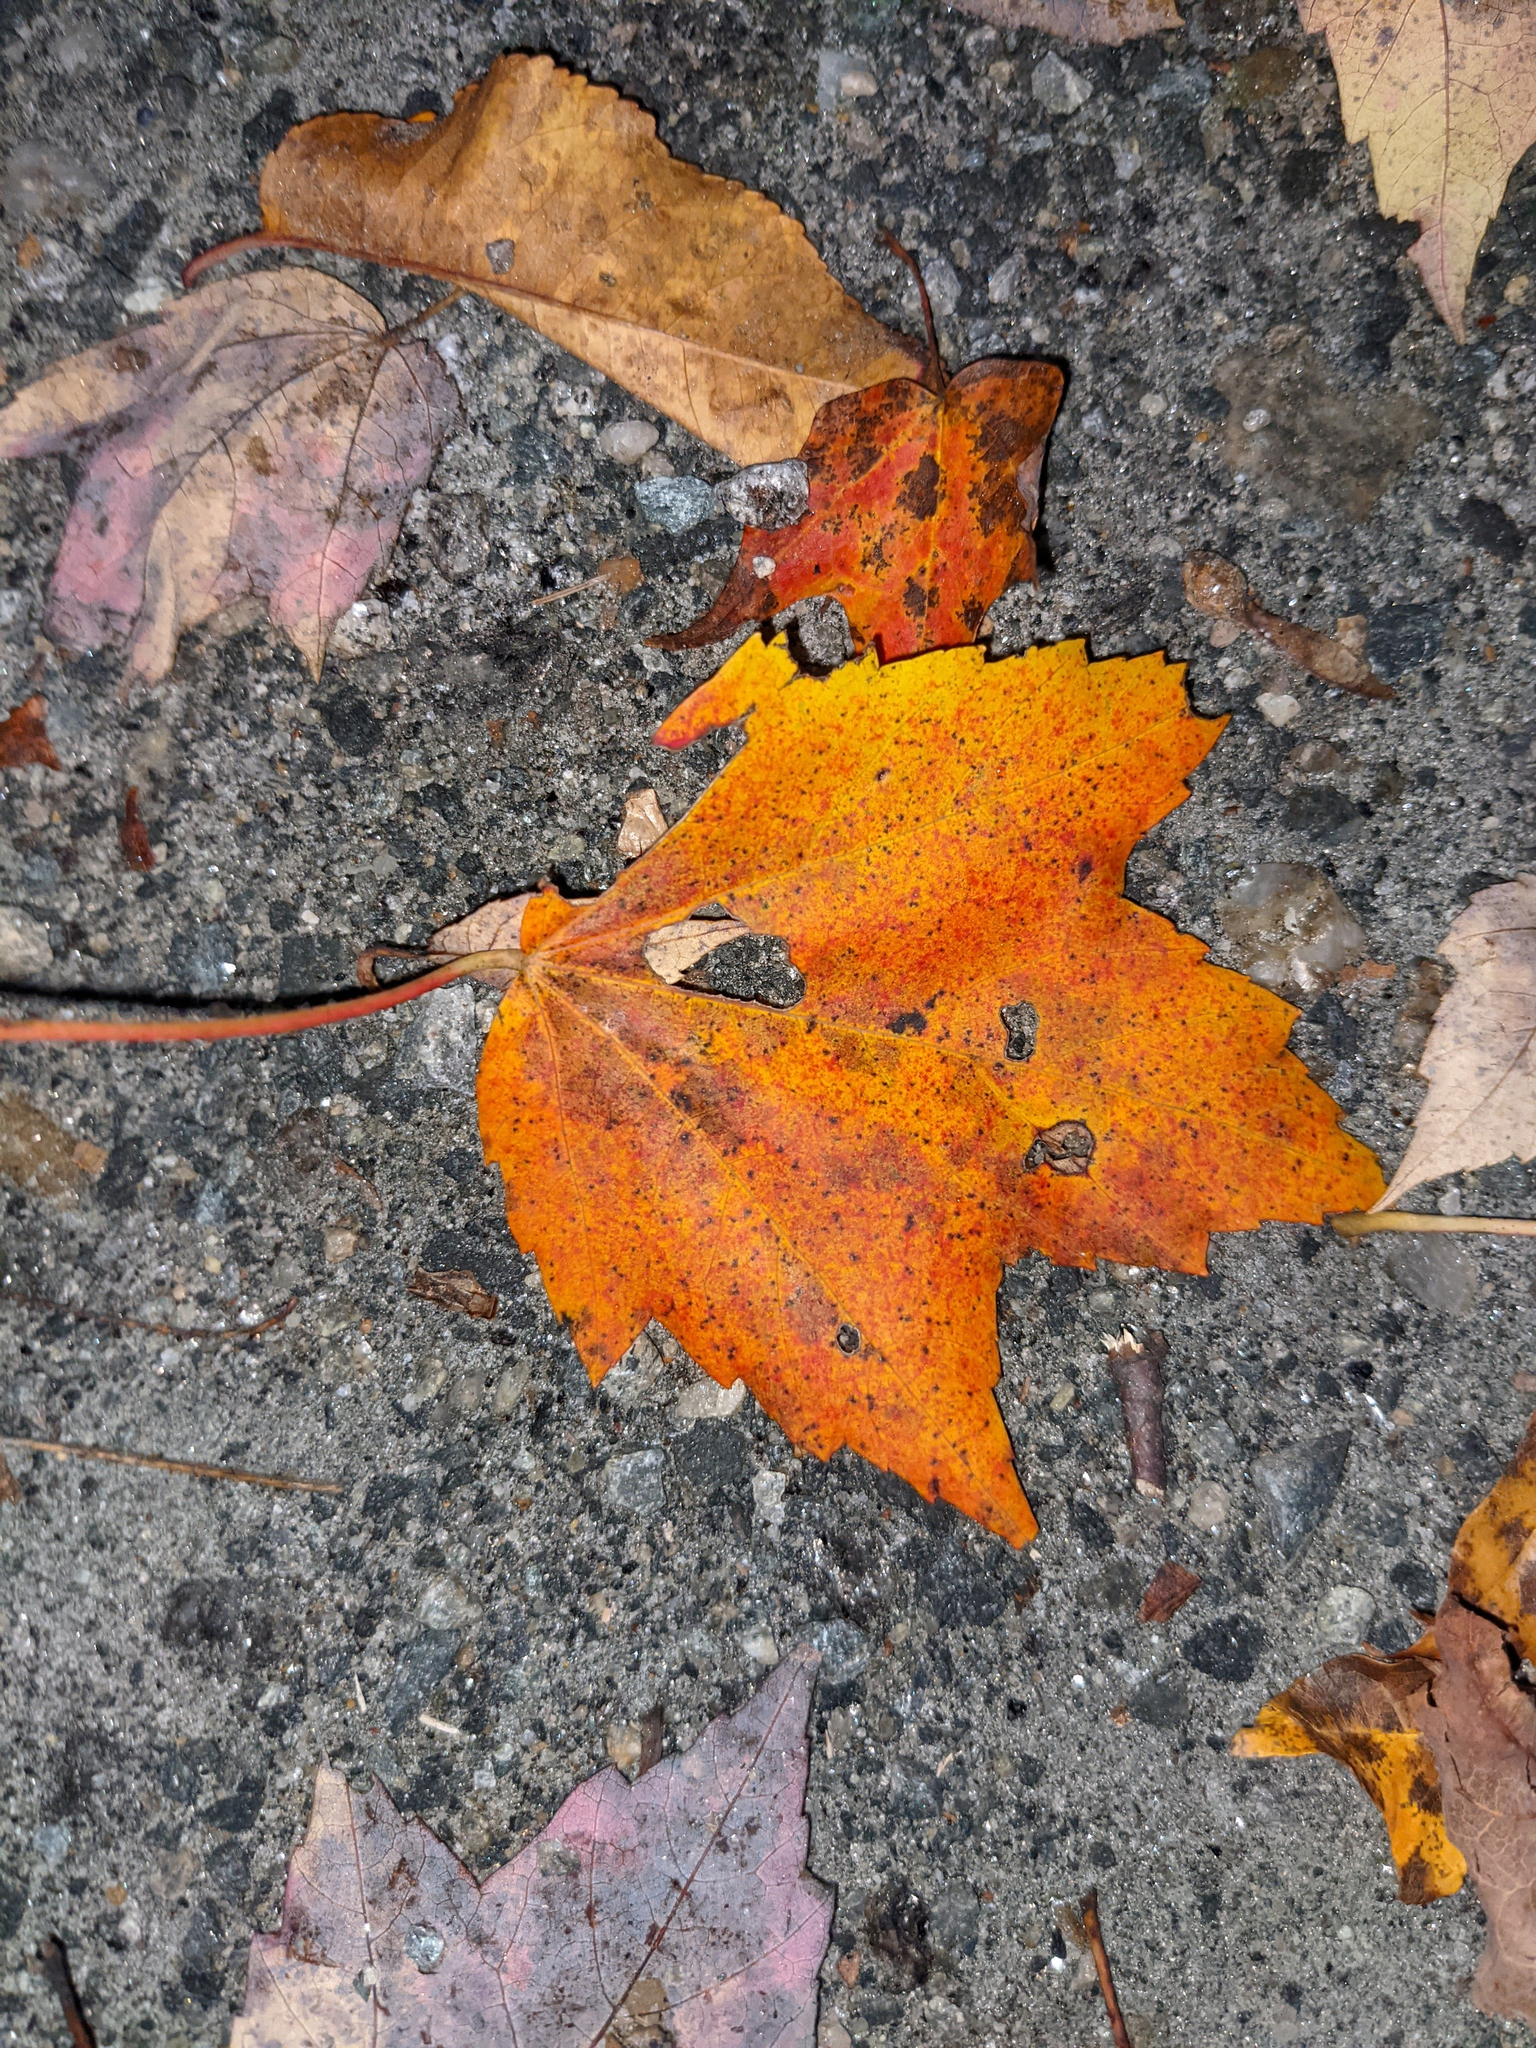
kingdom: Plantae
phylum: Tracheophyta
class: Magnoliopsida
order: Sapindales
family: Sapindaceae
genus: Acer
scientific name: Acer rubrum
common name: Red maple
